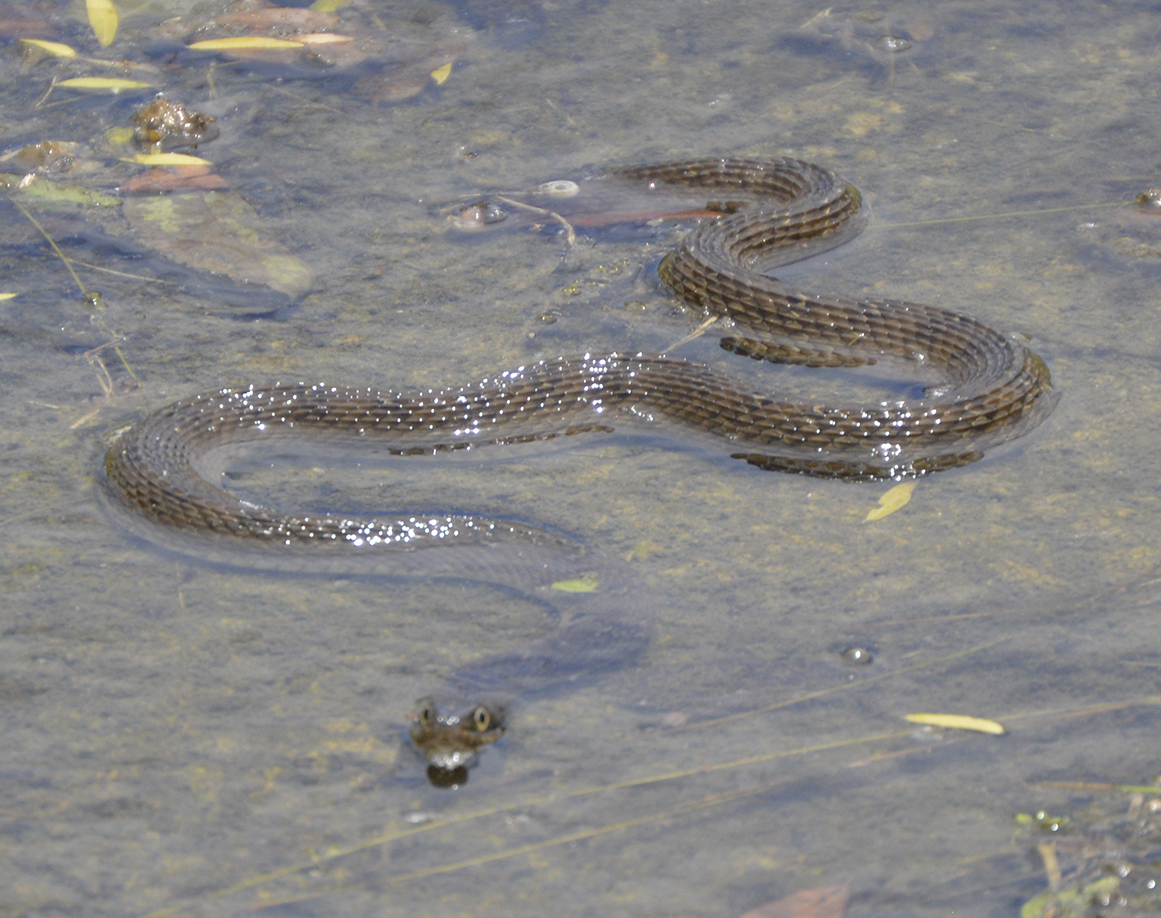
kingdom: Animalia
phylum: Chordata
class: Squamata
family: Colubridae
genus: Nerodia
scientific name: Nerodia erythrogaster
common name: Plainbelly water snake
